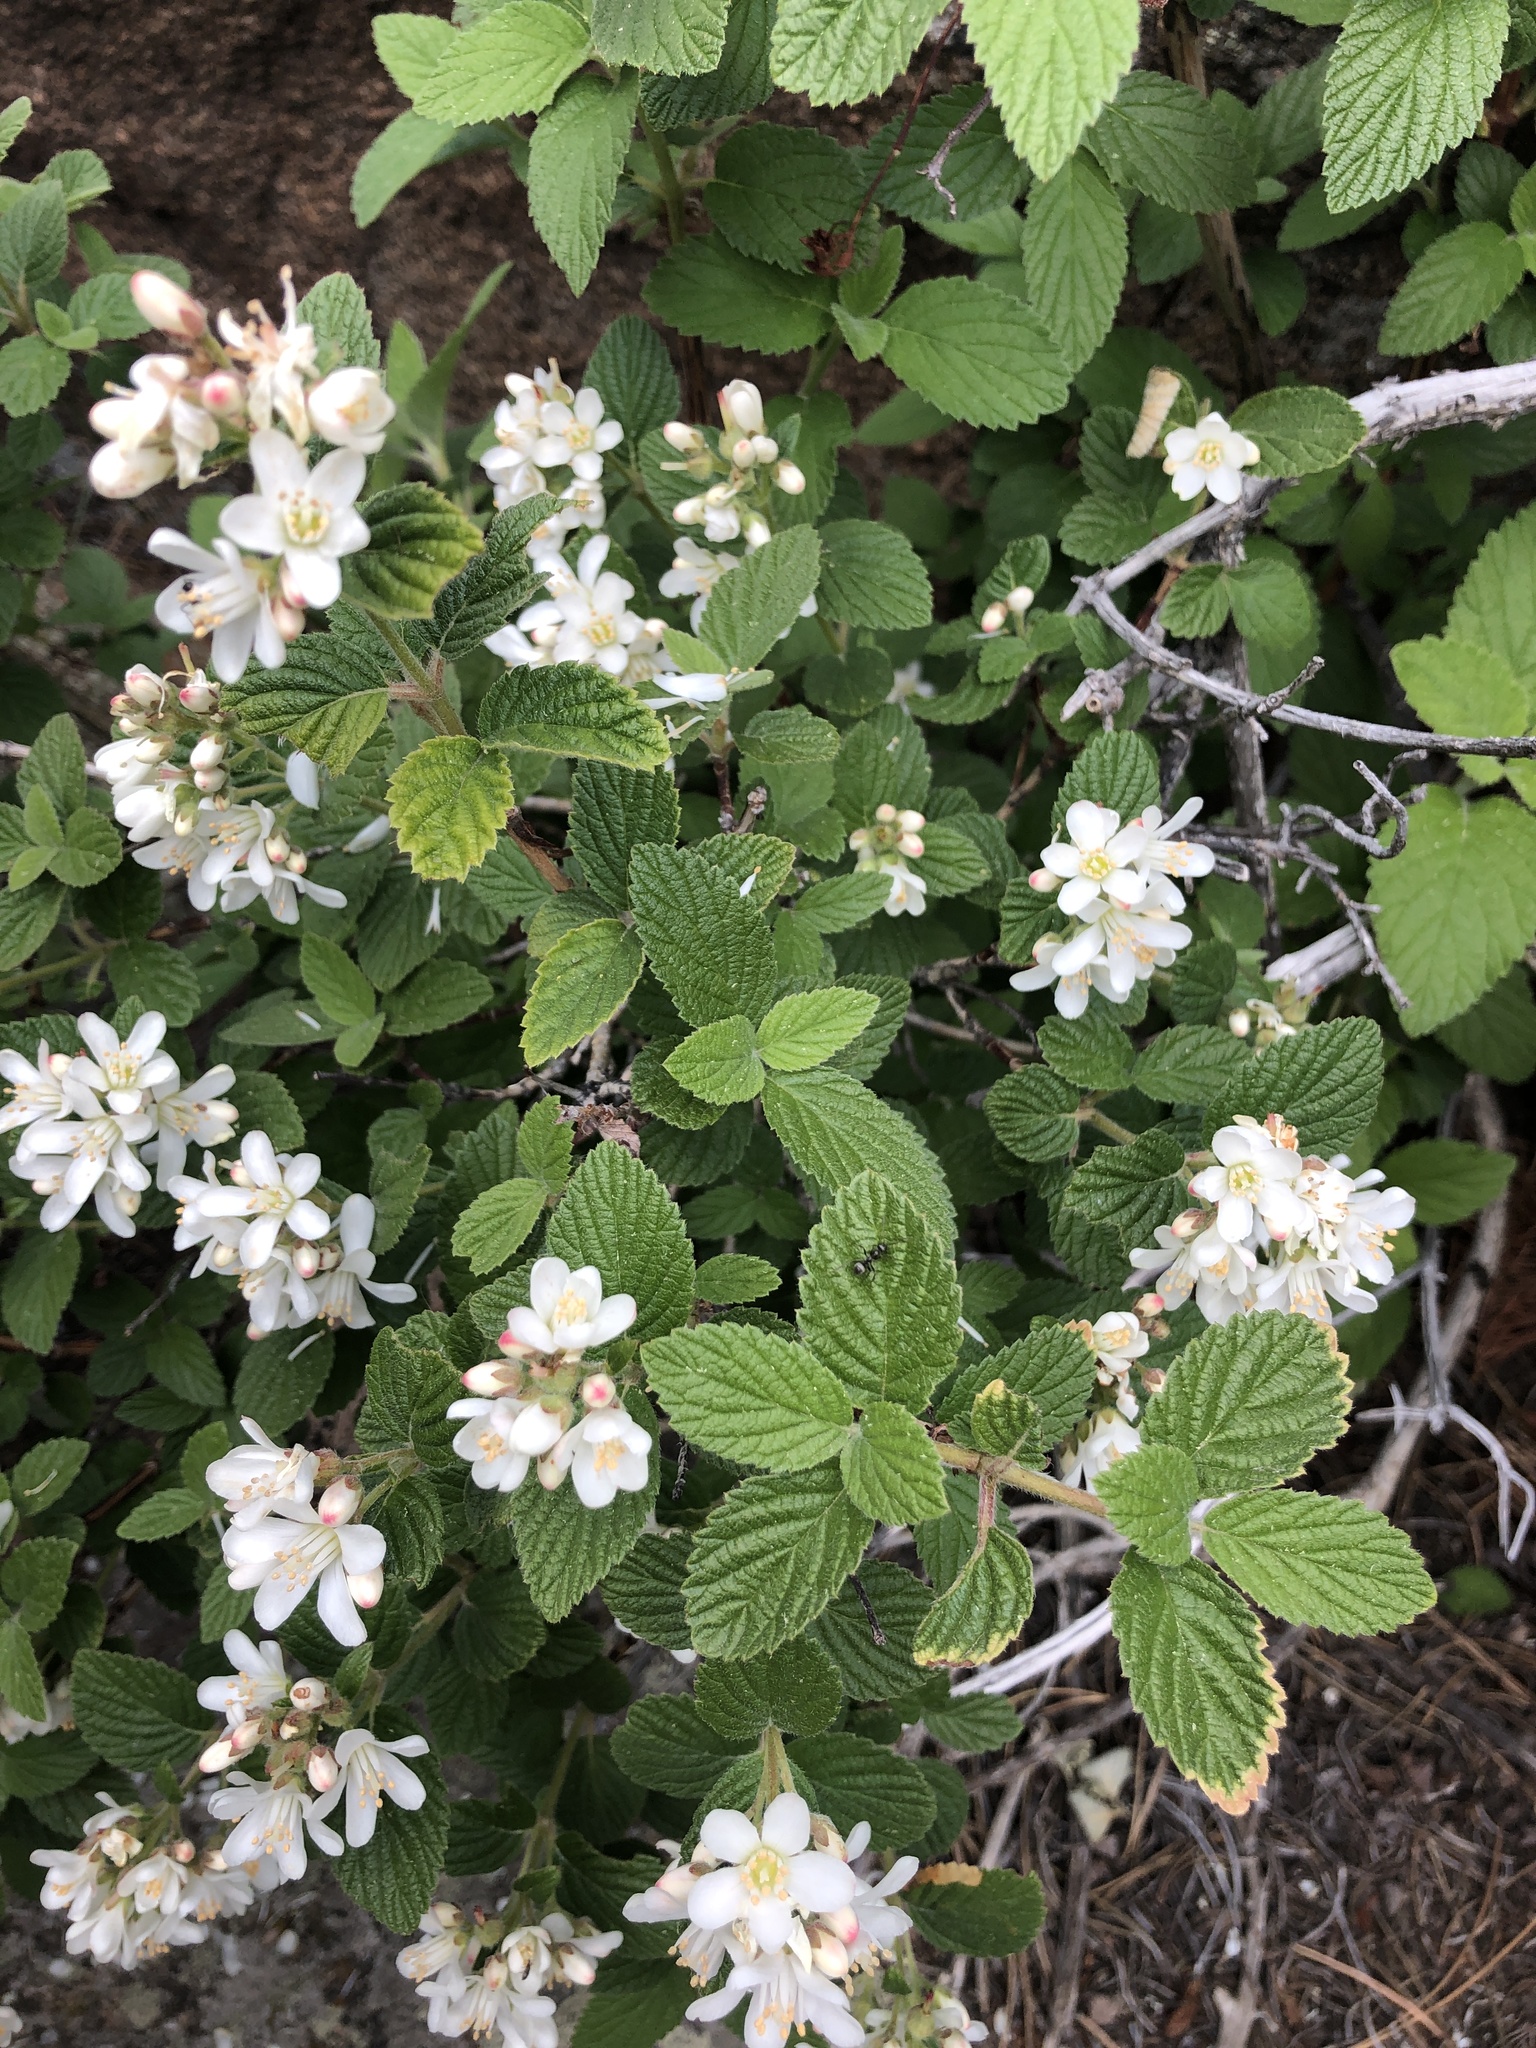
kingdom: Plantae
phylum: Tracheophyta
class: Magnoliopsida
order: Cornales
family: Hydrangeaceae
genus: Jamesia
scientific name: Jamesia americana
